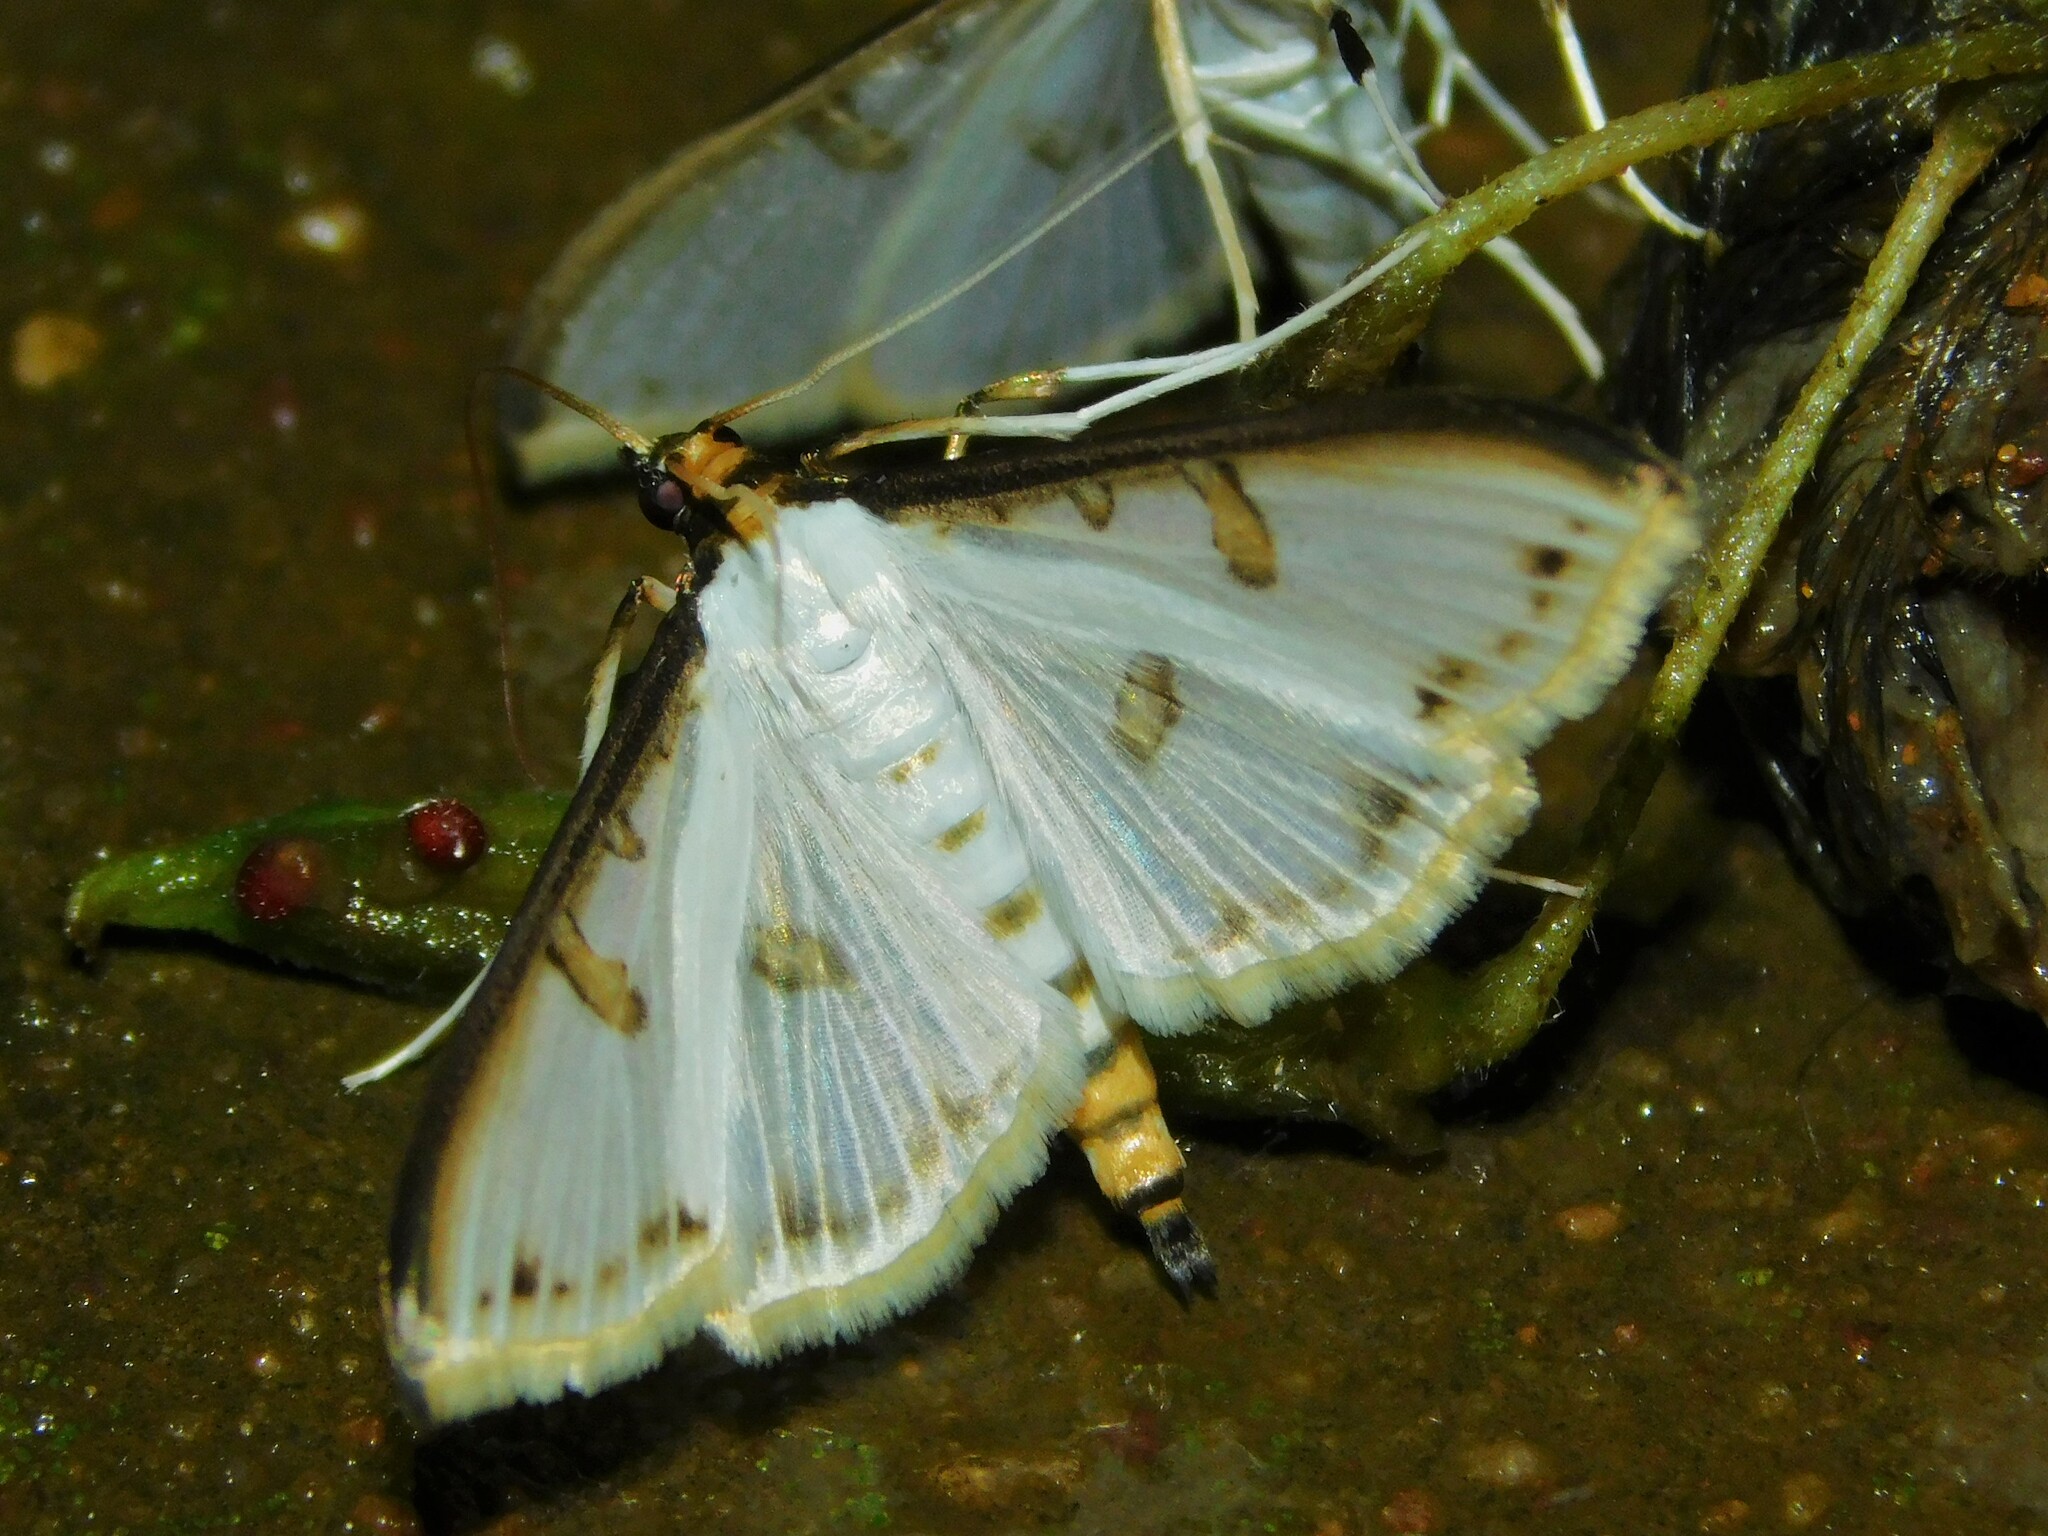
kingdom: Animalia
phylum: Arthropoda
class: Insecta
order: Lepidoptera
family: Crambidae
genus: Palpita
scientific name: Palpita metallata
